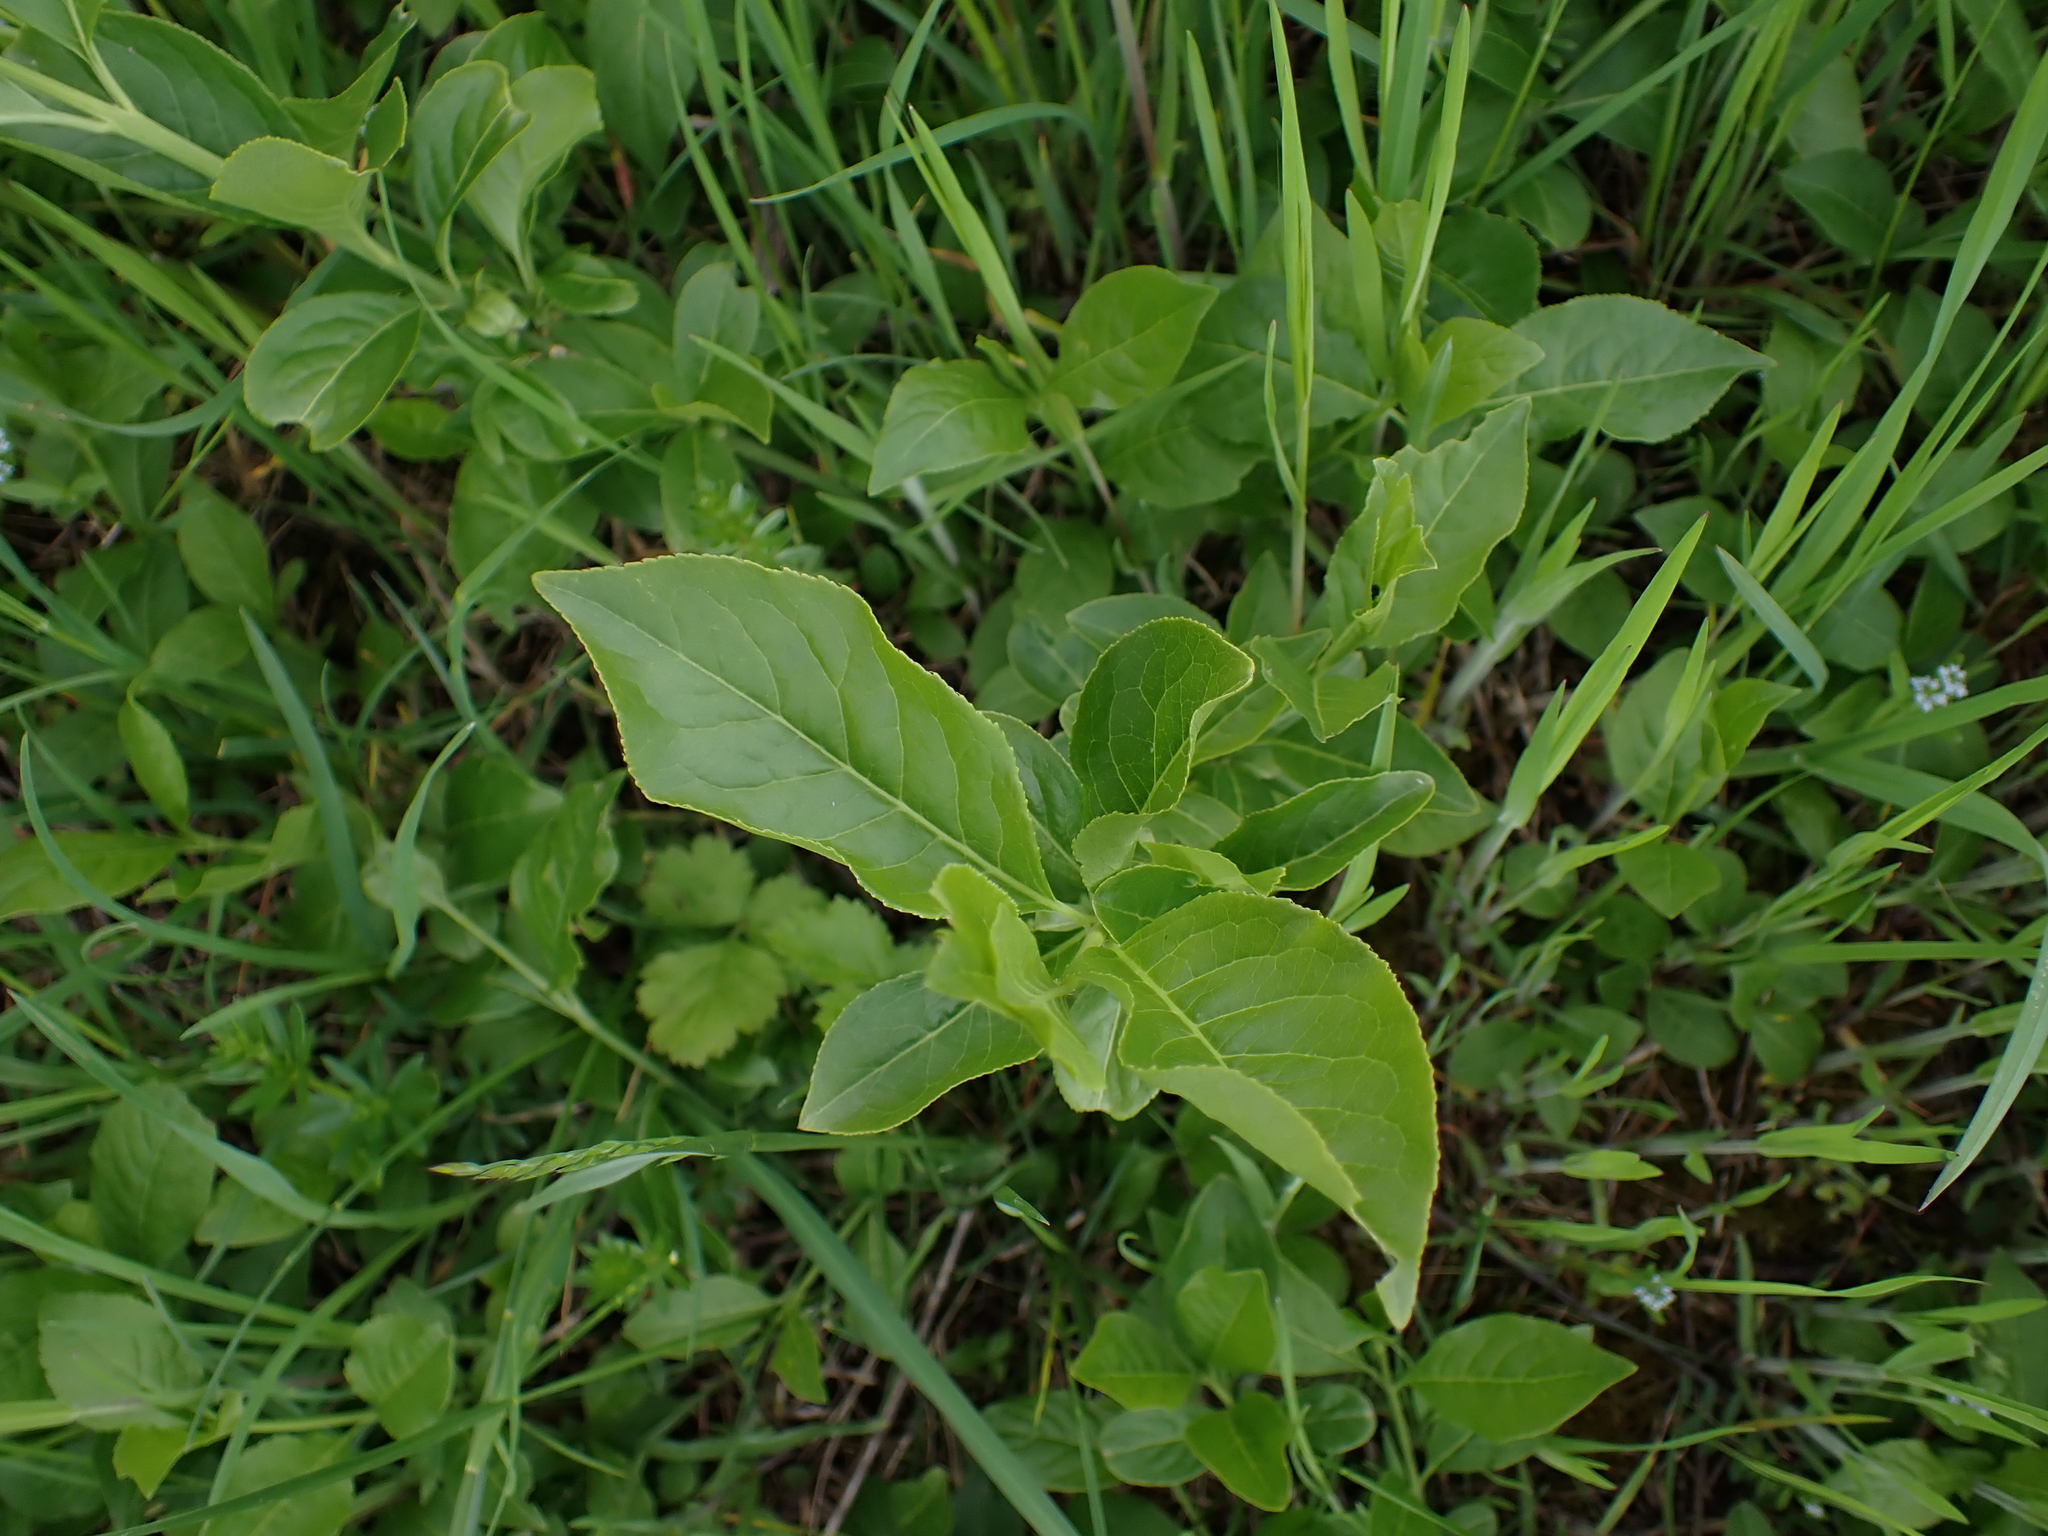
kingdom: Plantae
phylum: Tracheophyta
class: Magnoliopsida
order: Celastrales
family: Celastraceae
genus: Euonymus
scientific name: Euonymus europaeus
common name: Spindle
